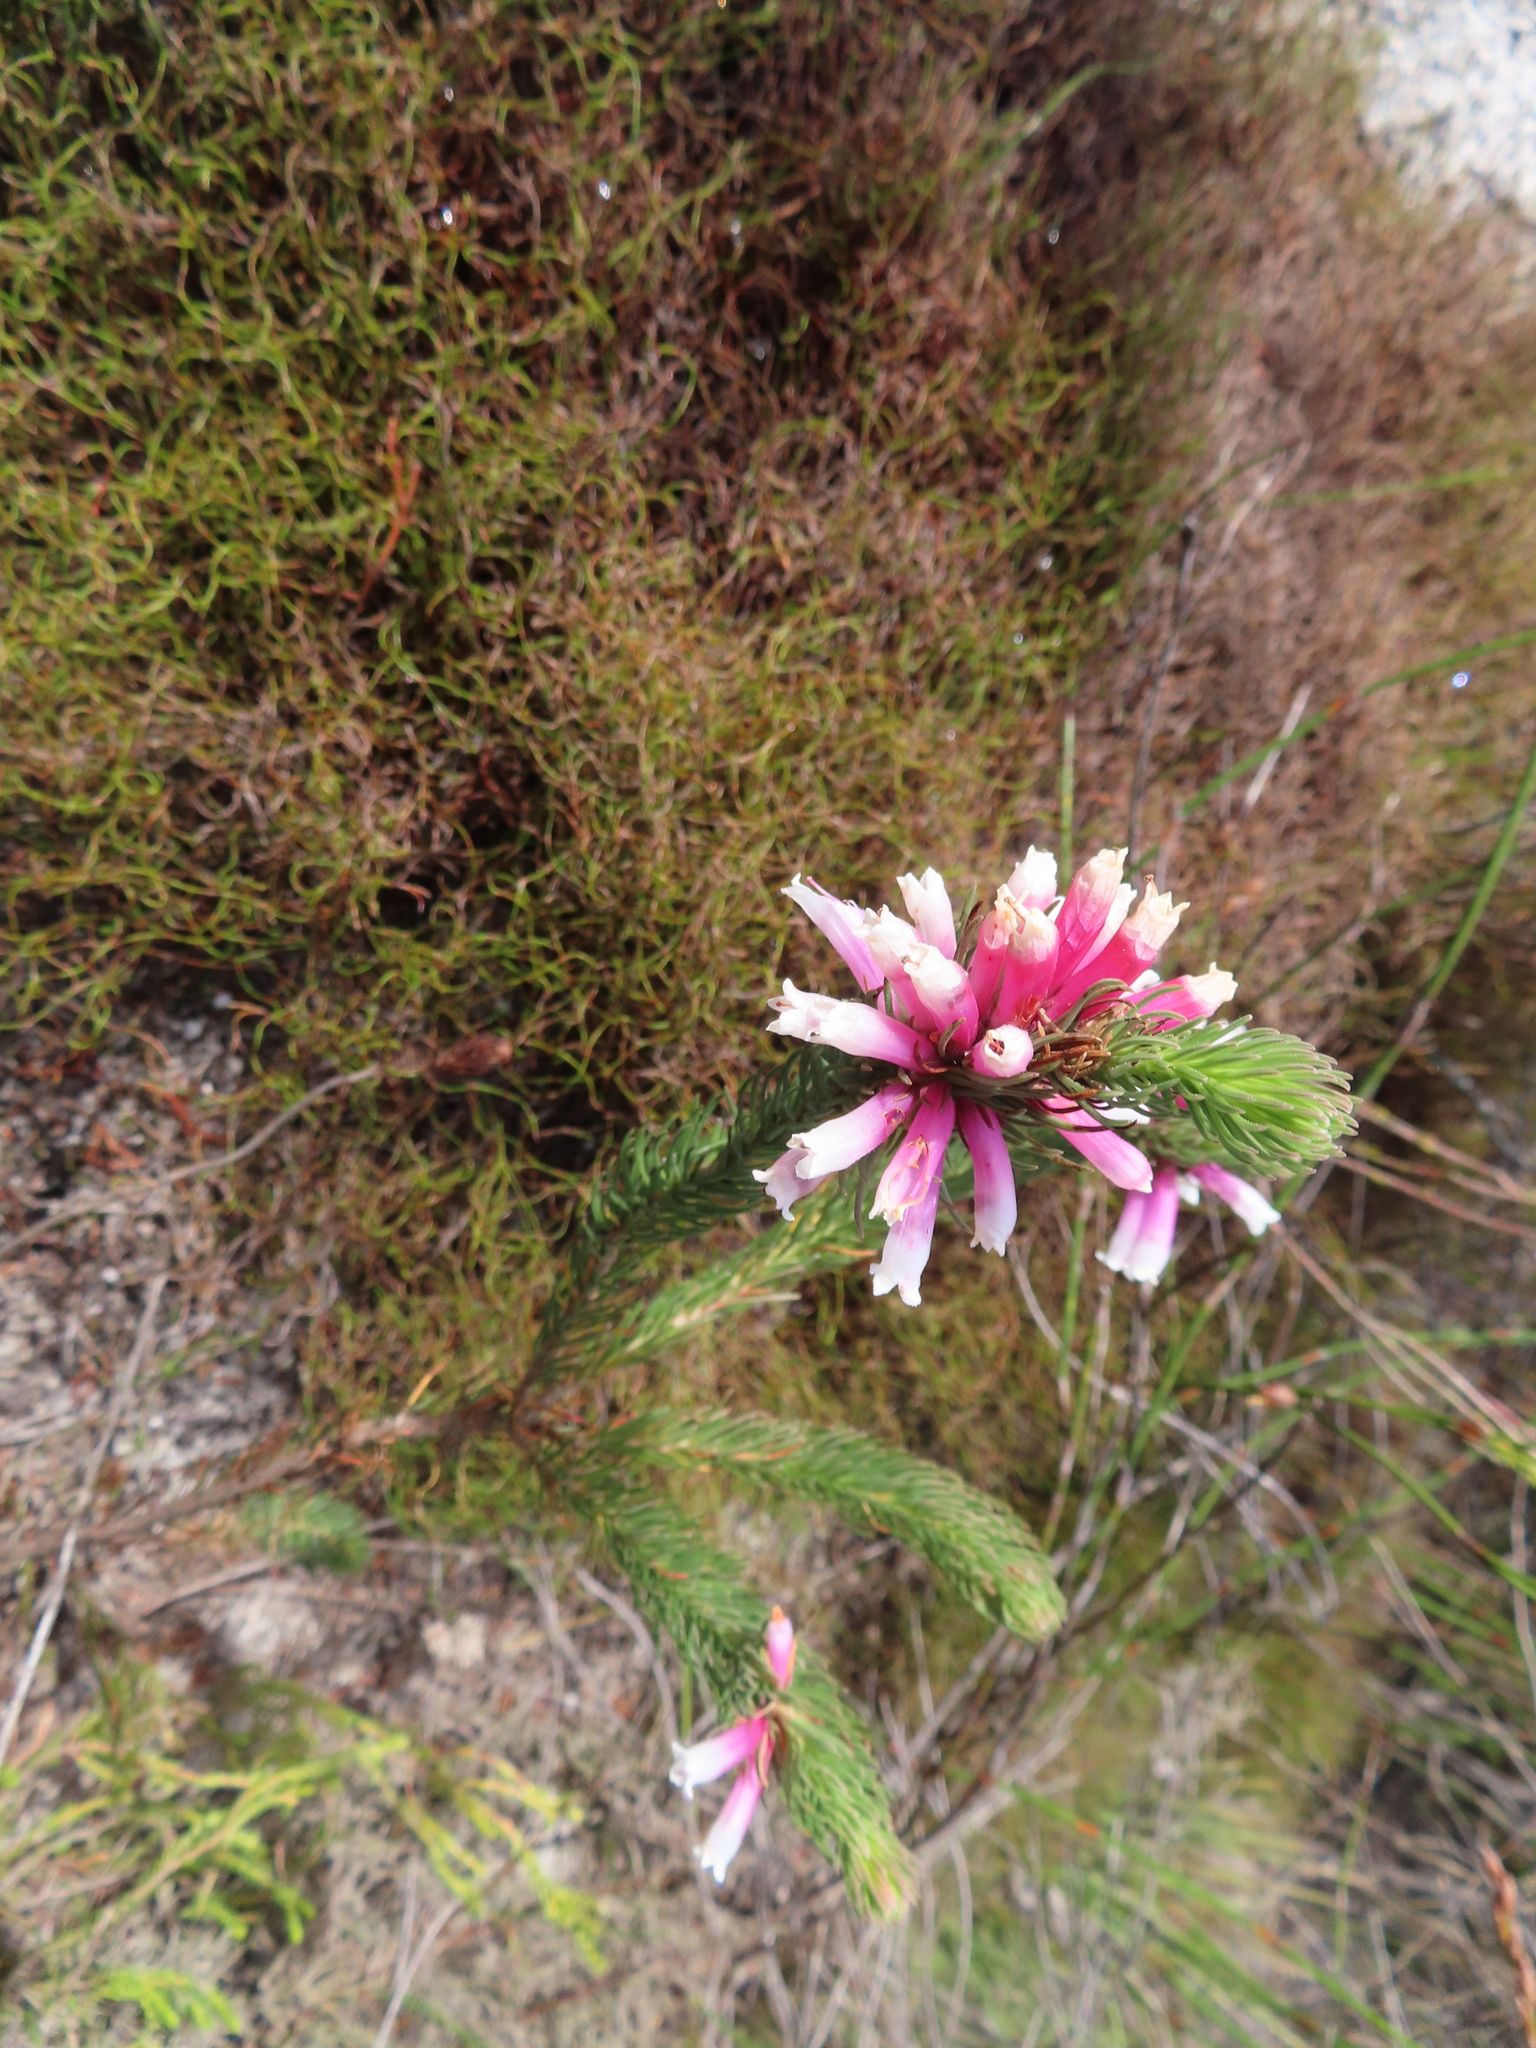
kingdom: Plantae
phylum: Tracheophyta
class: Magnoliopsida
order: Ericales
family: Ericaceae
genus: Erica
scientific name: Erica viscaria
